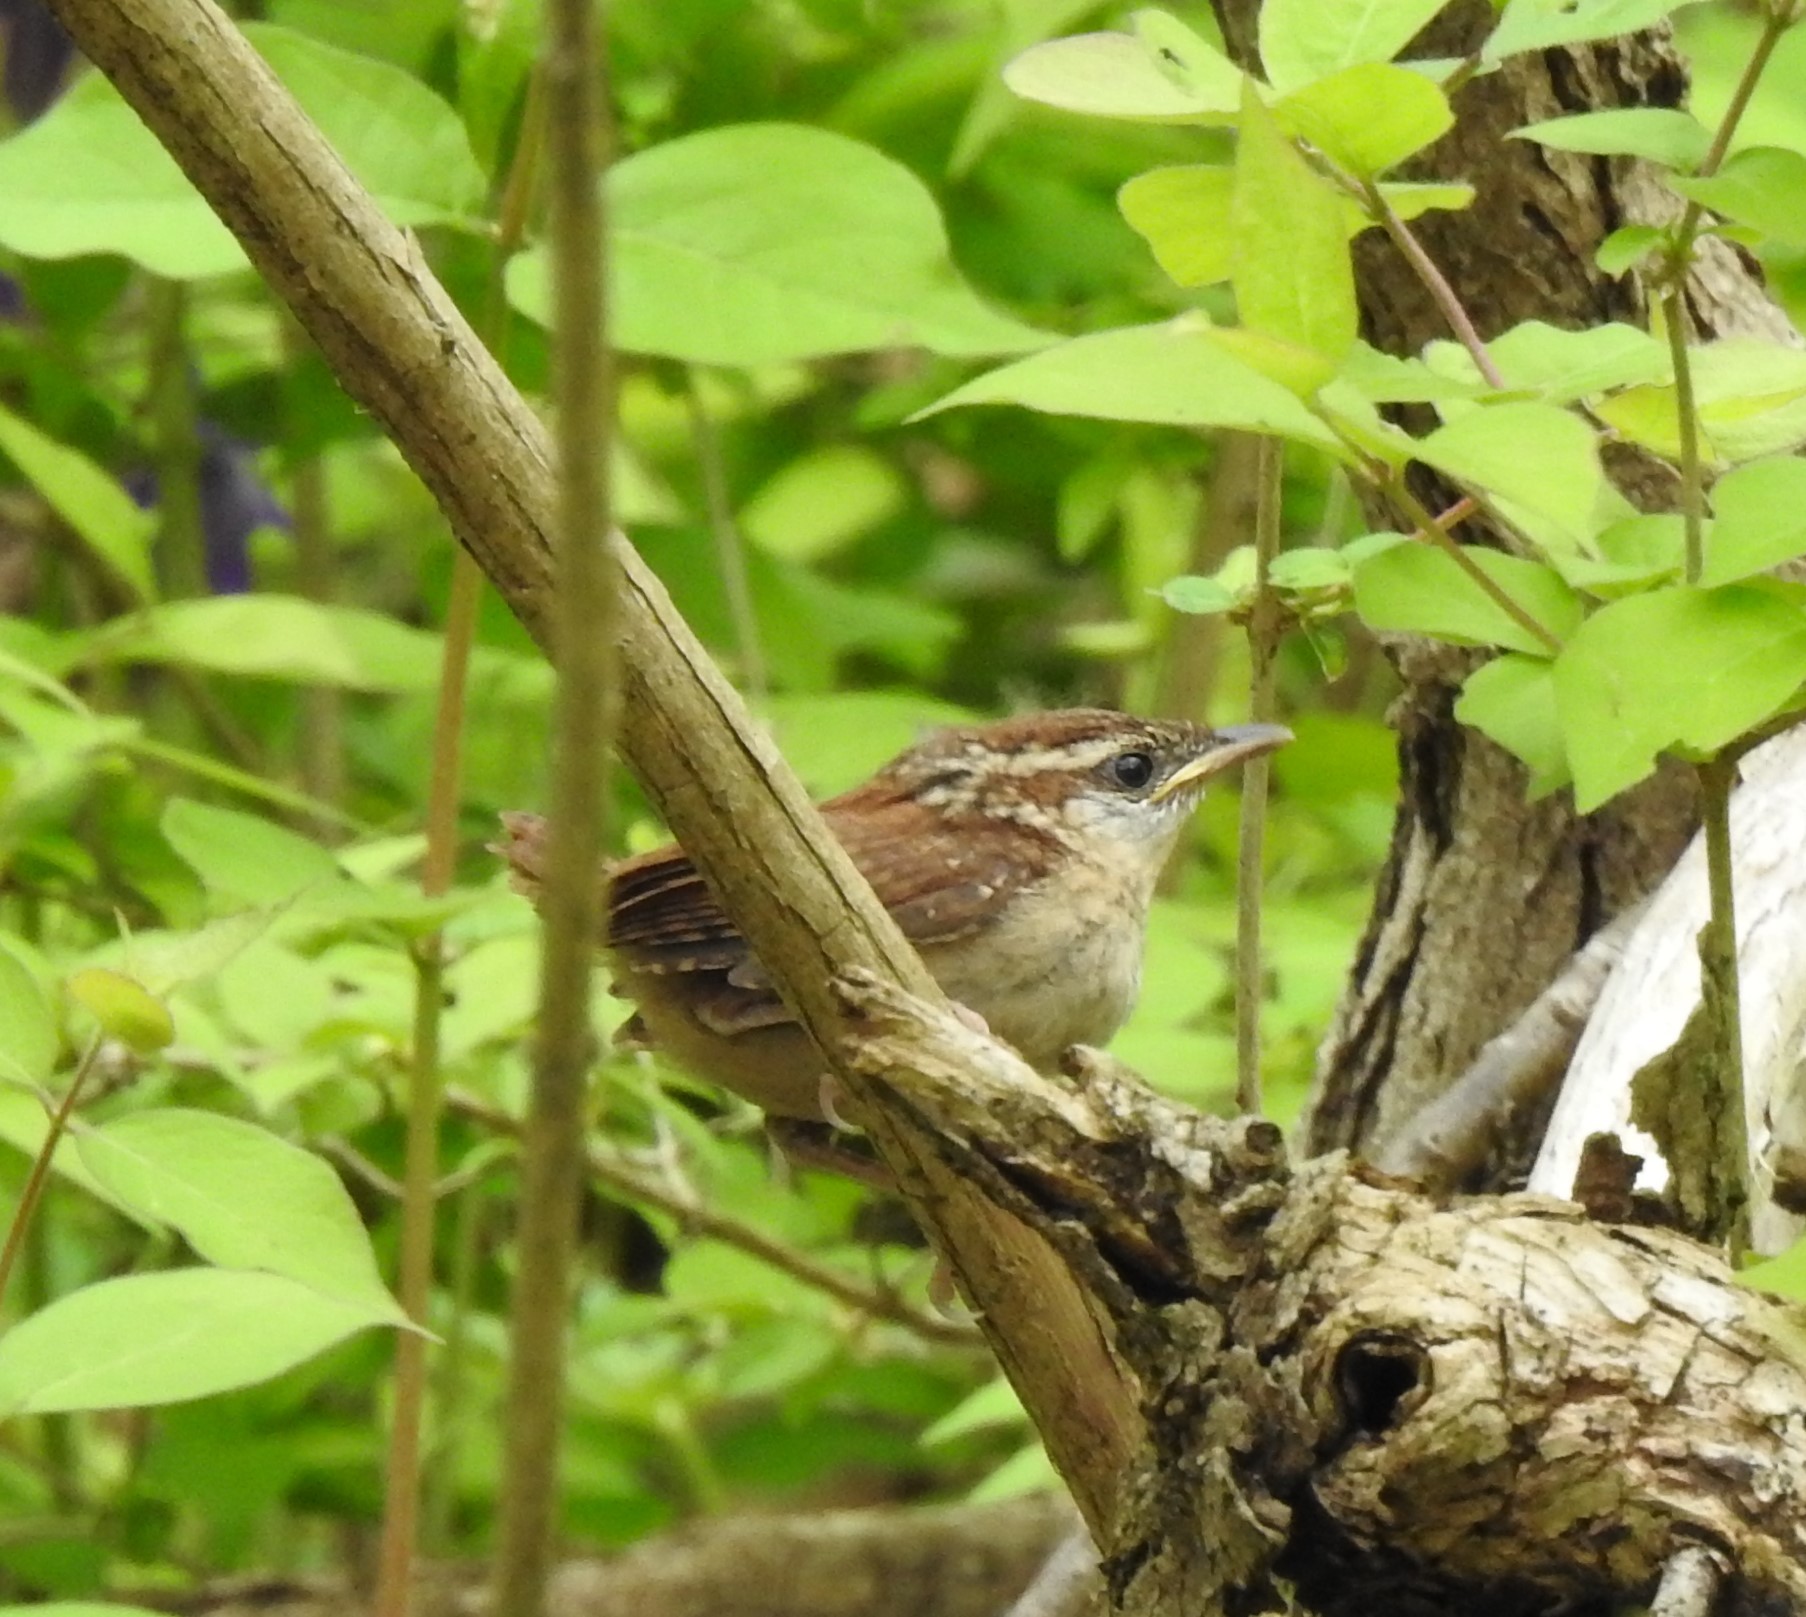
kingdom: Animalia
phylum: Chordata
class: Aves
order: Passeriformes
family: Troglodytidae
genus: Thryothorus
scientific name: Thryothorus ludovicianus
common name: Carolina wren
